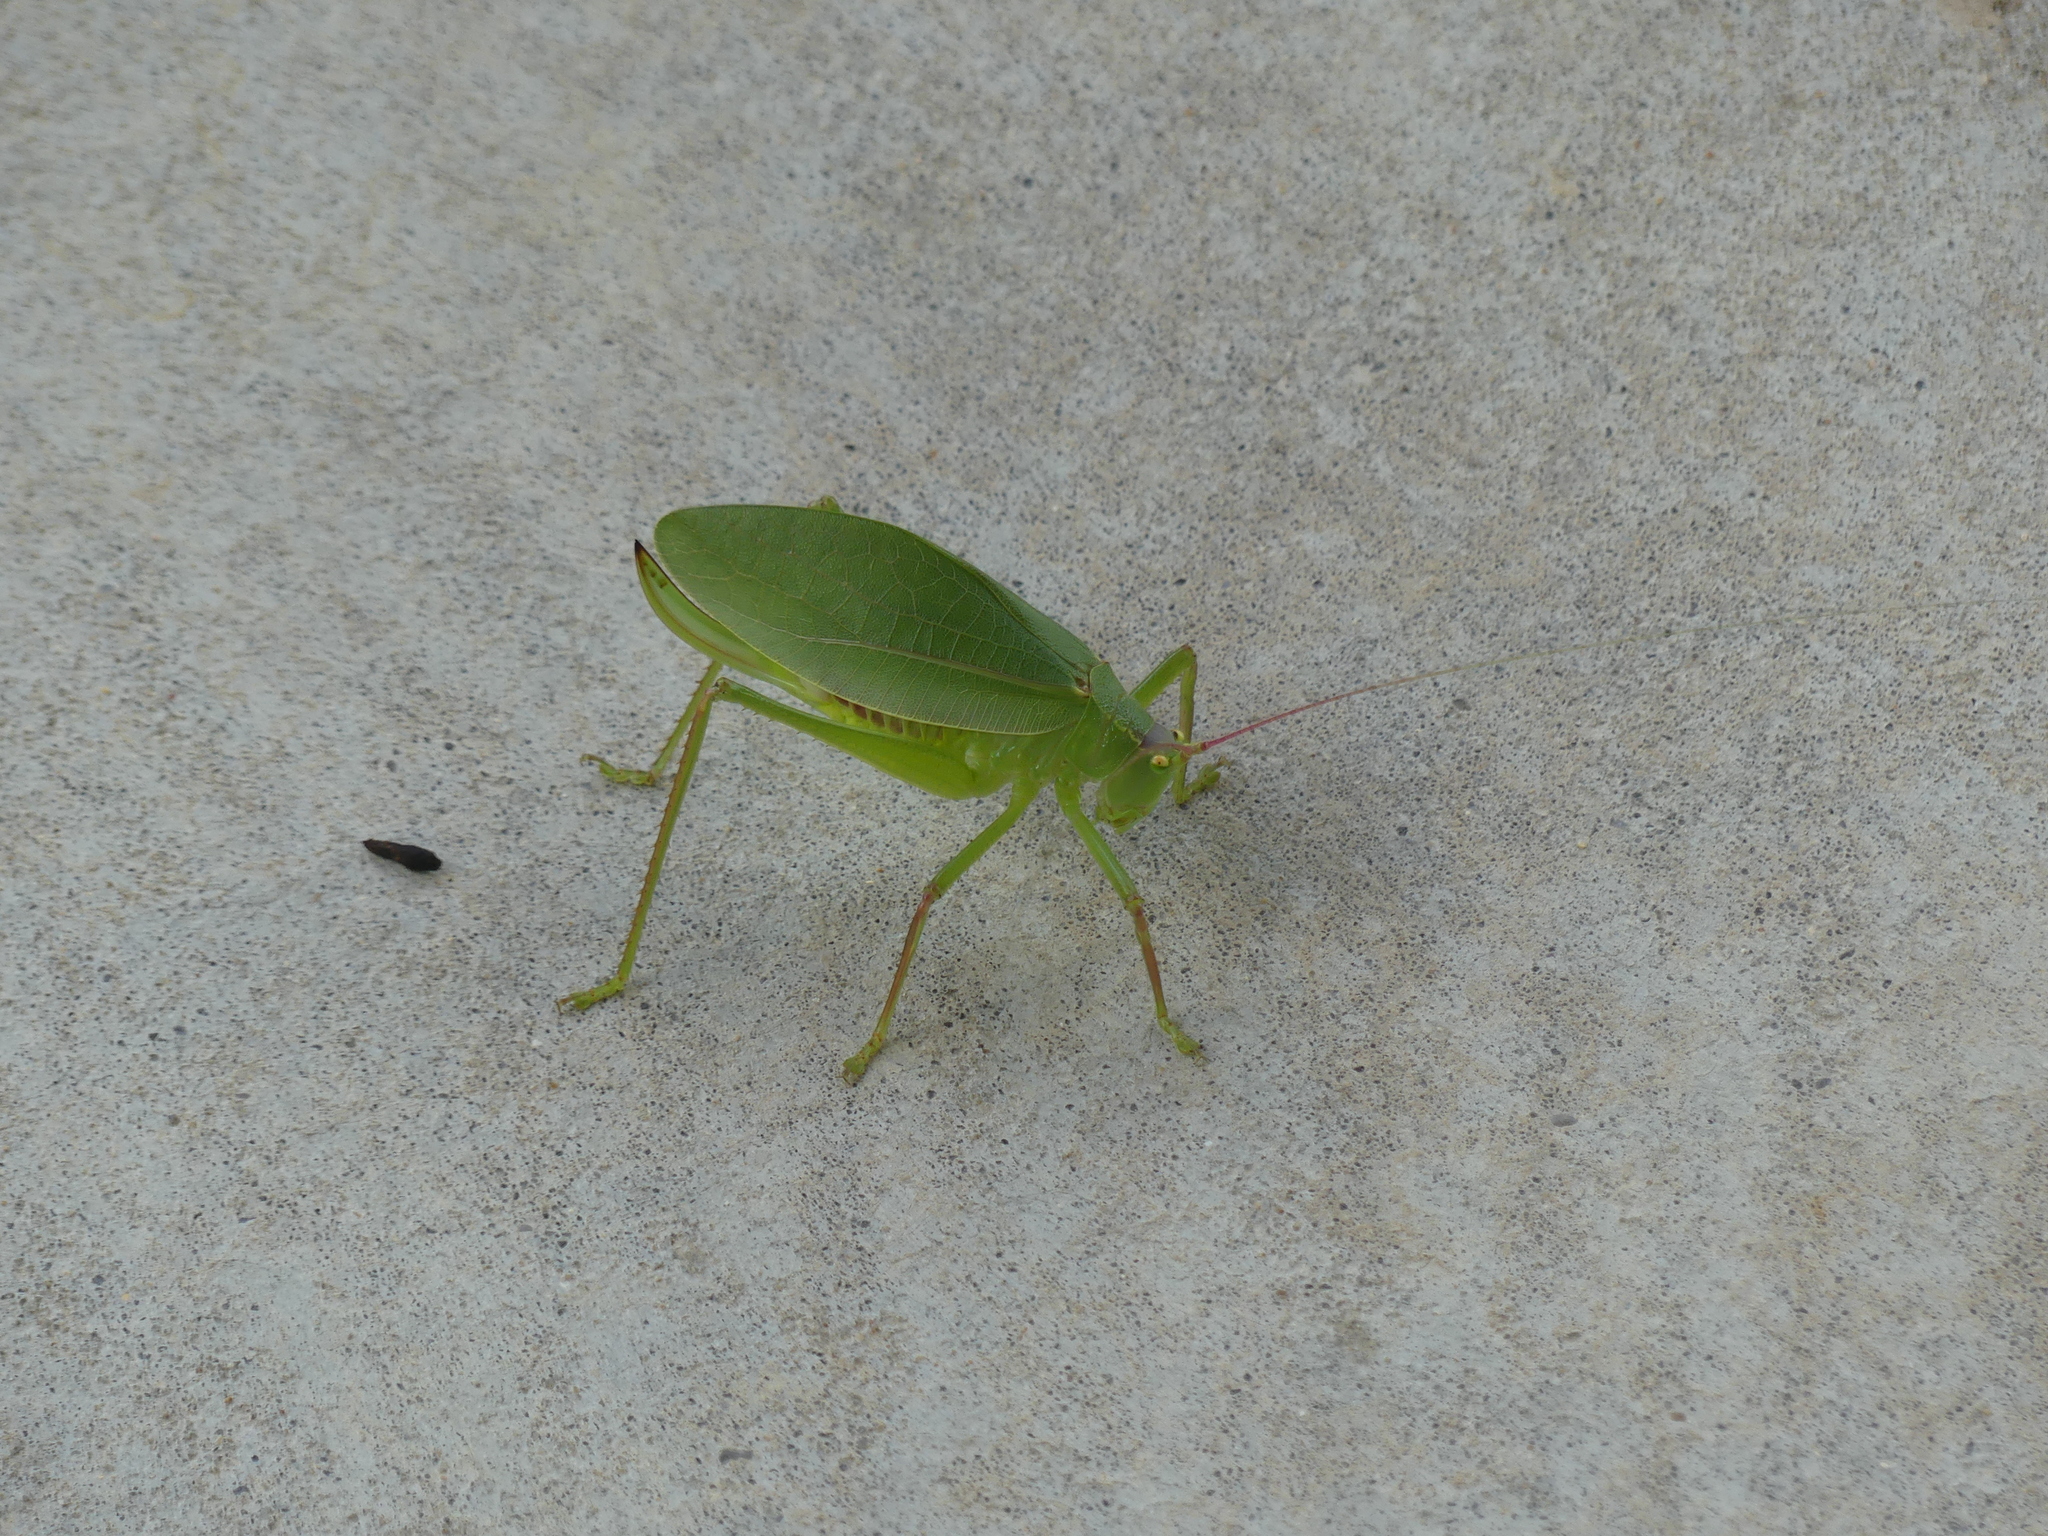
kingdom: Animalia
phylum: Arthropoda
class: Insecta
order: Orthoptera
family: Tettigoniidae
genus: Pterophylla
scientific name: Pterophylla camellifolia
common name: Common true katydid
